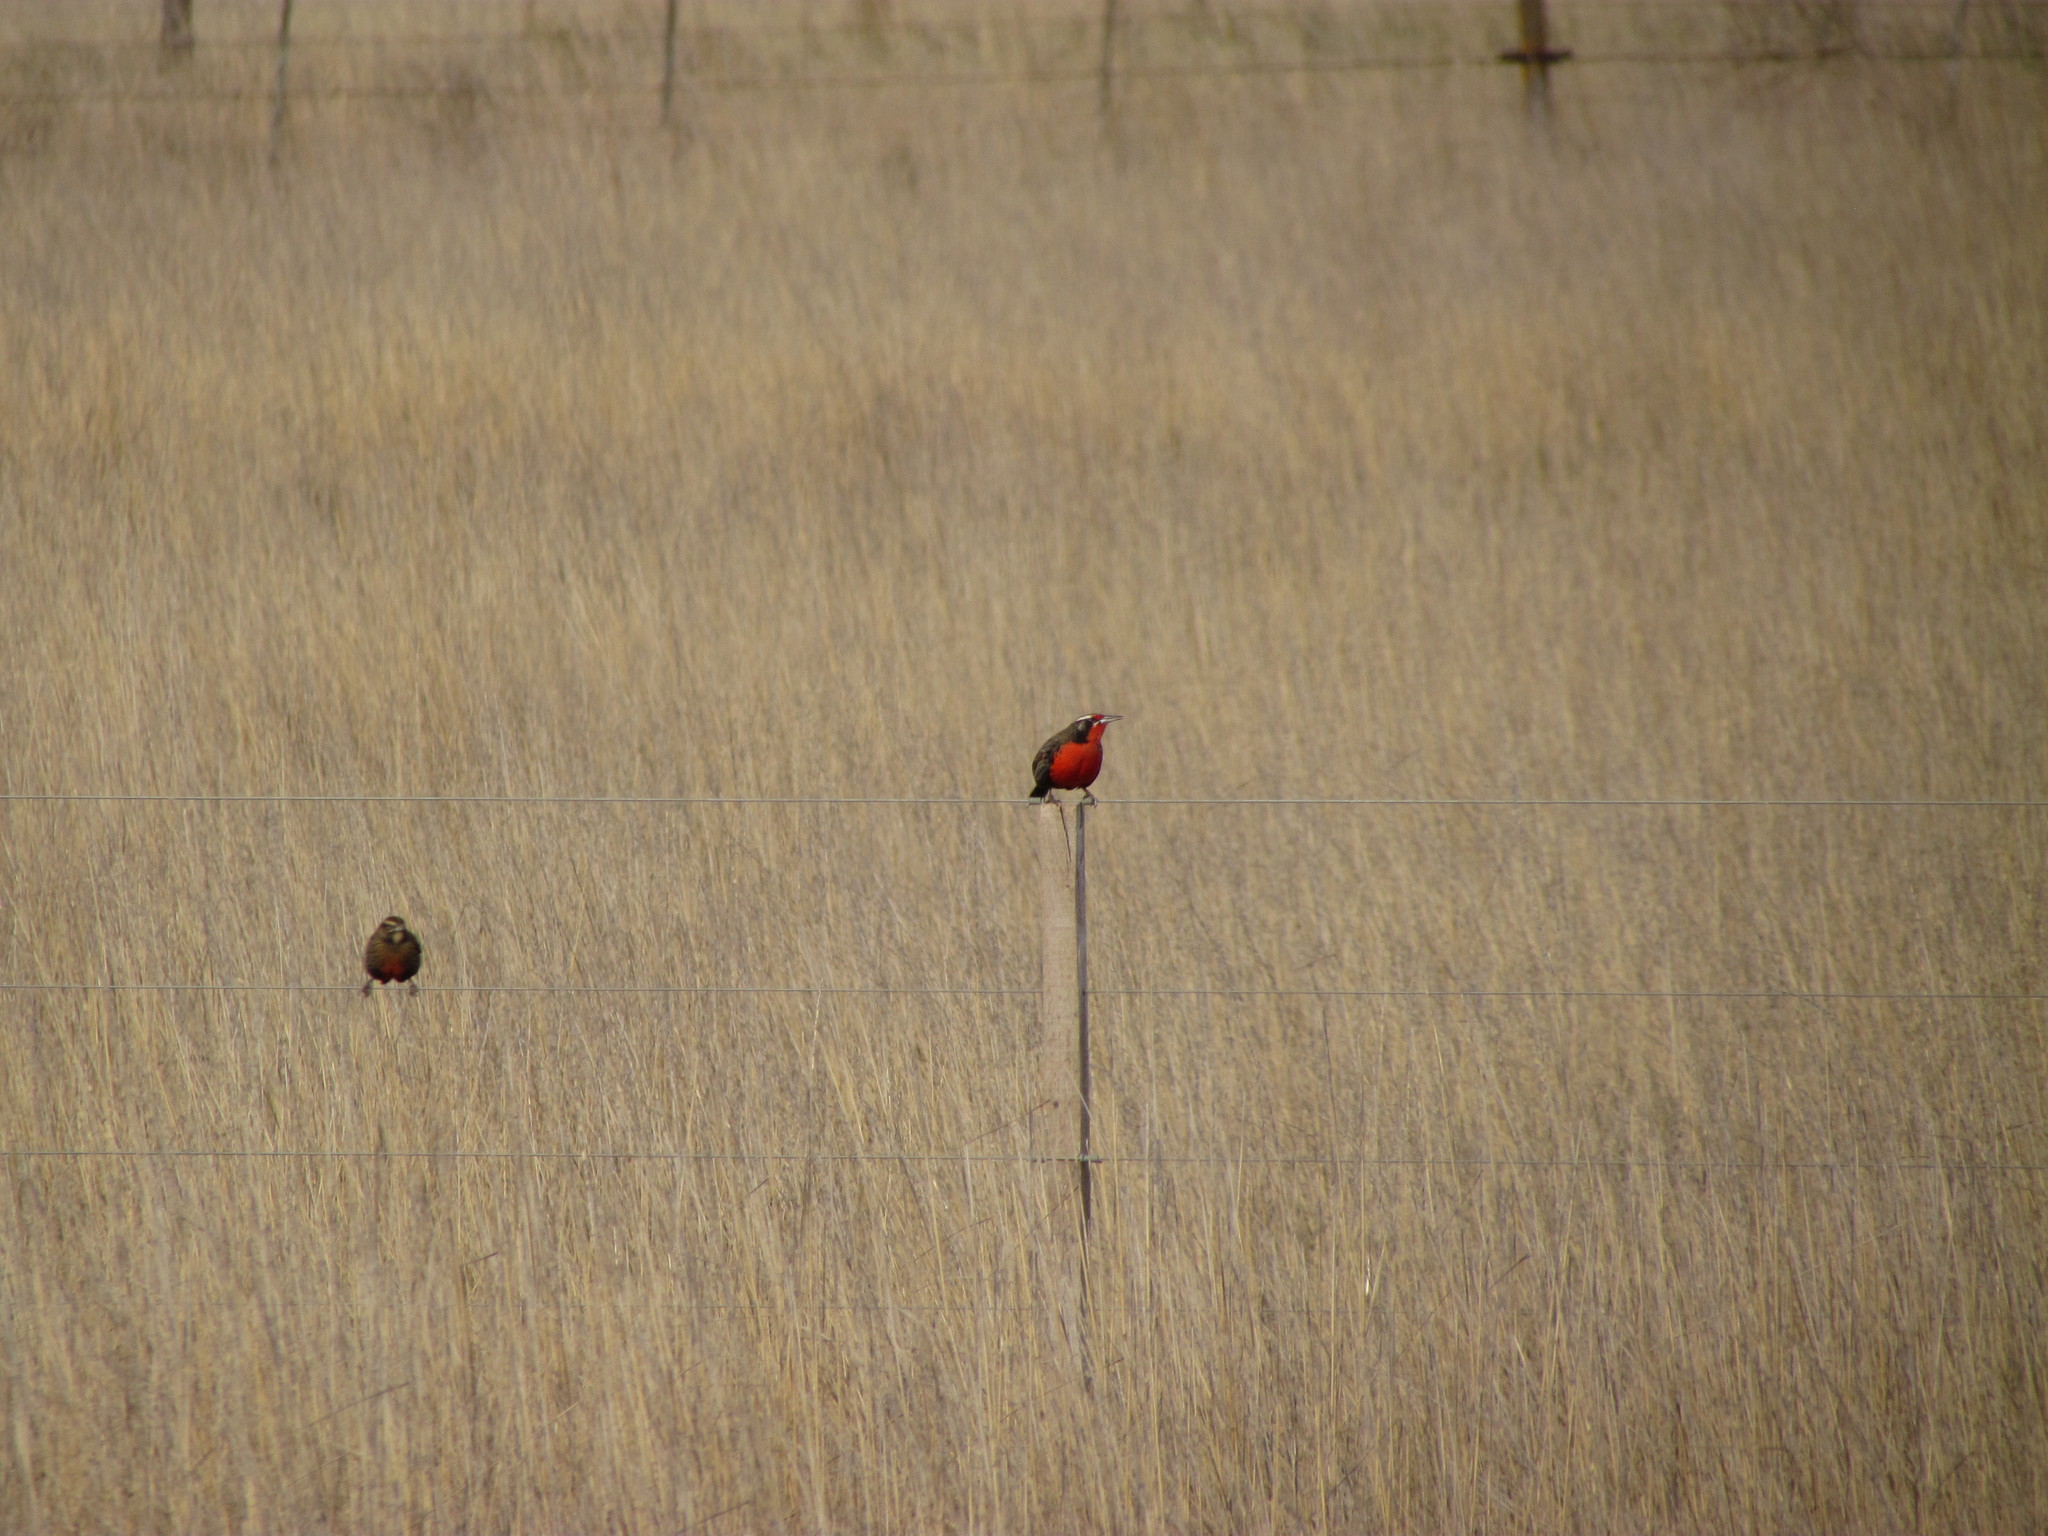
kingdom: Animalia
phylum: Chordata
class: Aves
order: Passeriformes
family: Icteridae
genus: Sturnella
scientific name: Sturnella loyca
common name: Long-tailed meadowlark
